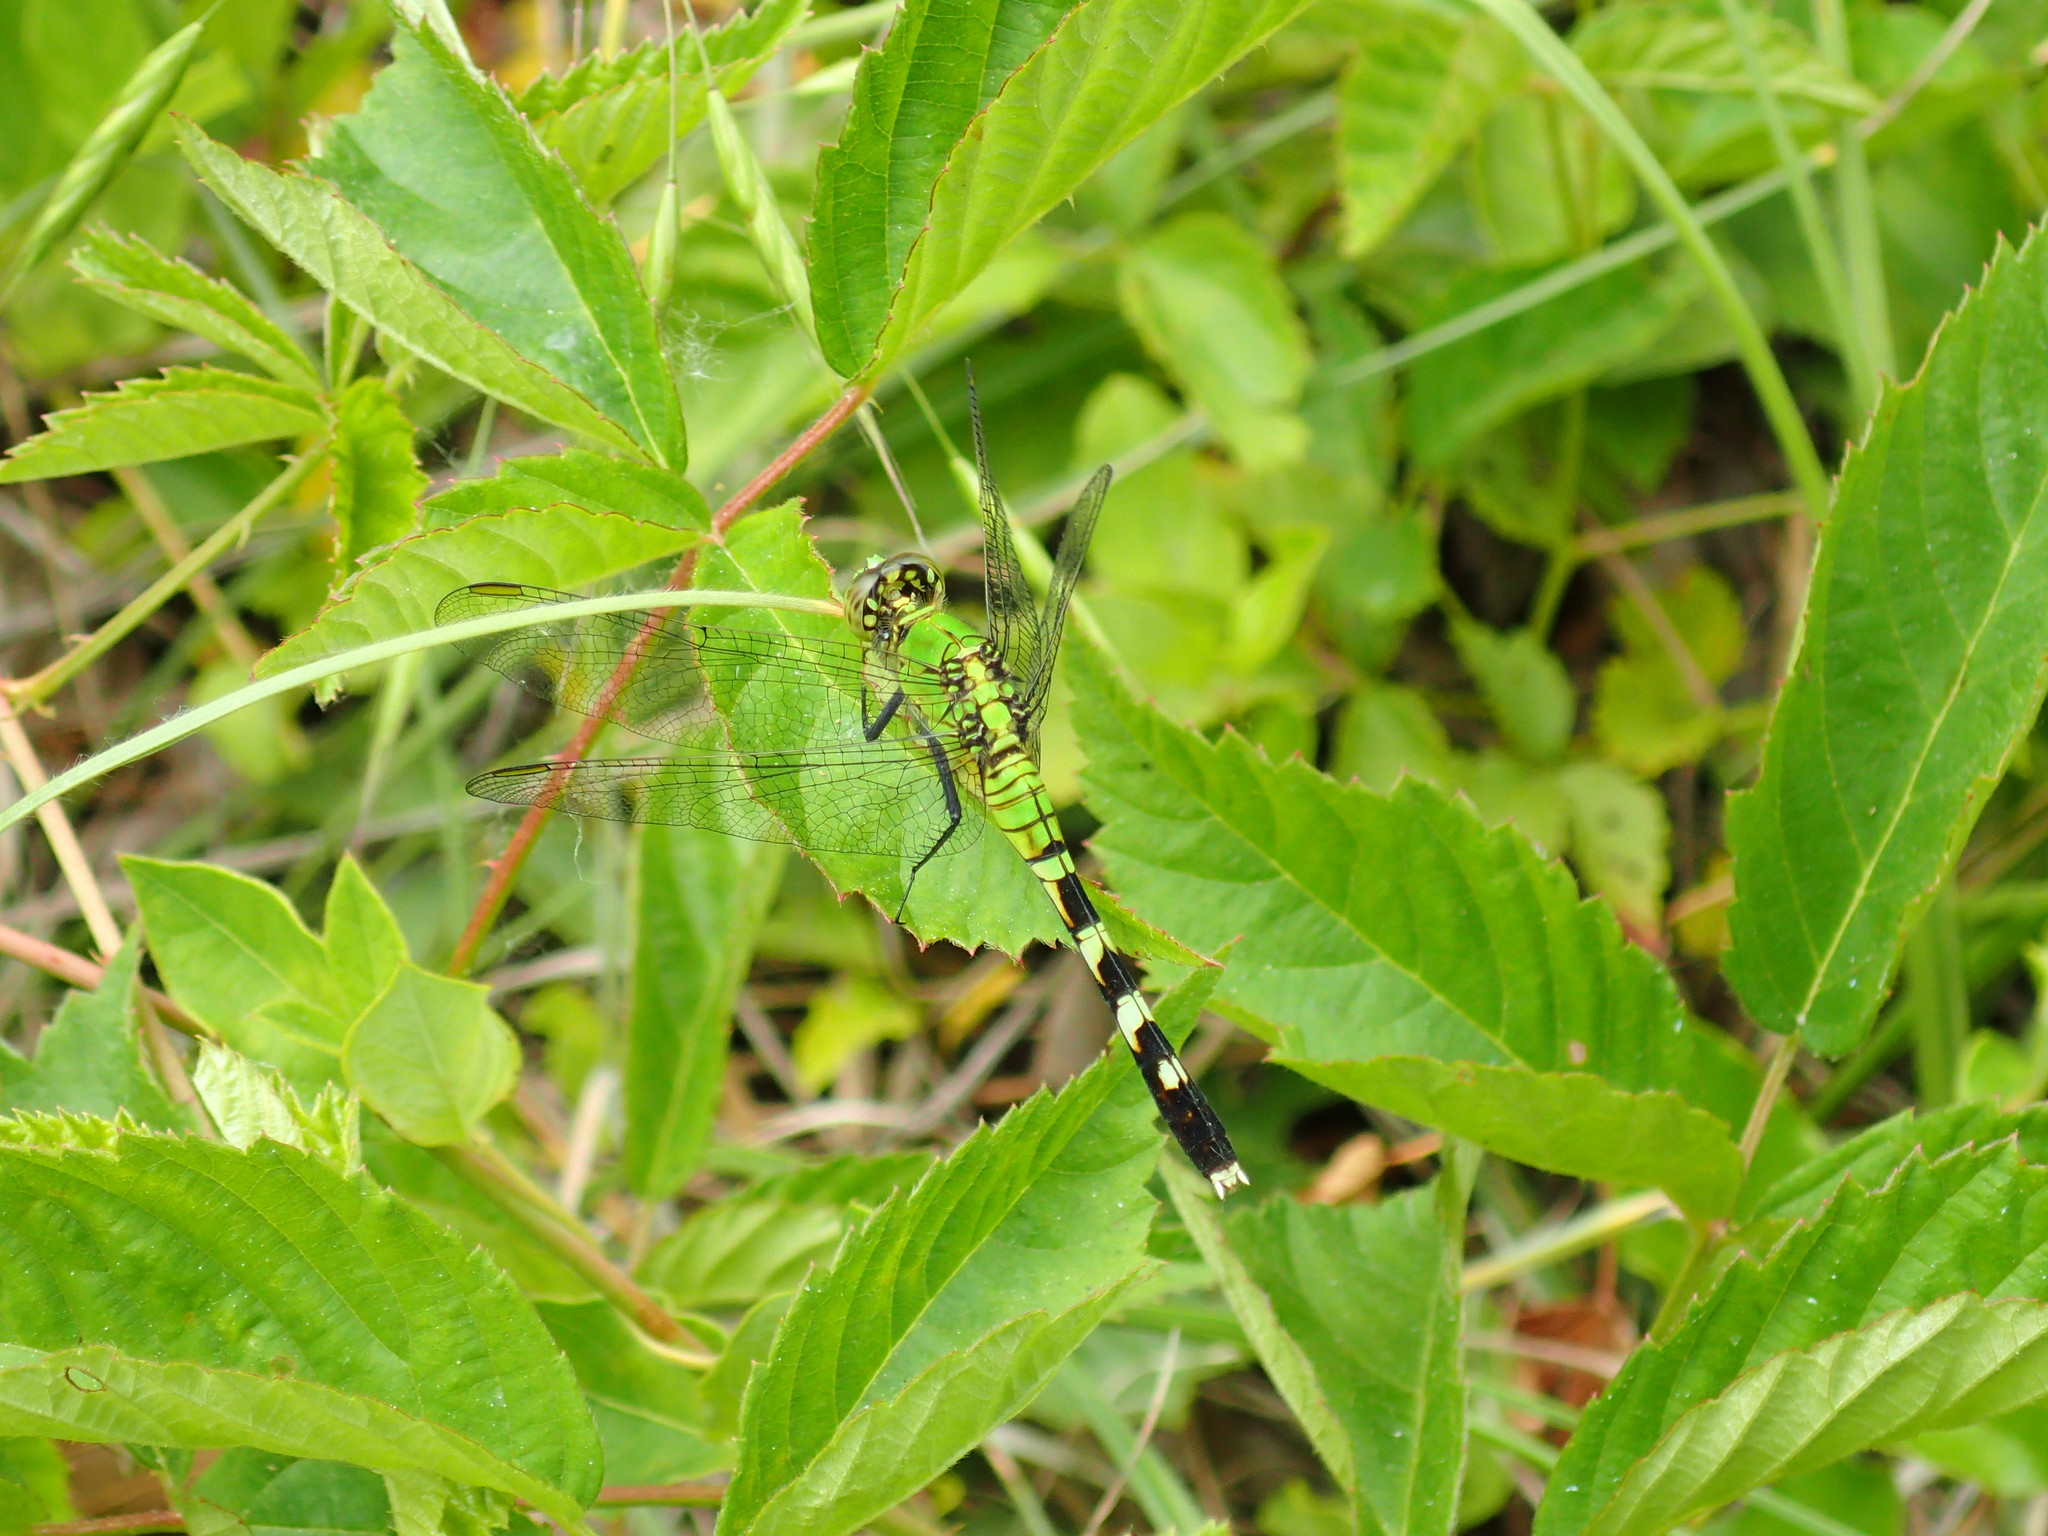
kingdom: Animalia
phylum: Arthropoda
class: Insecta
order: Odonata
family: Libellulidae
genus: Erythemis
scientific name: Erythemis simplicicollis
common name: Eastern pondhawk
